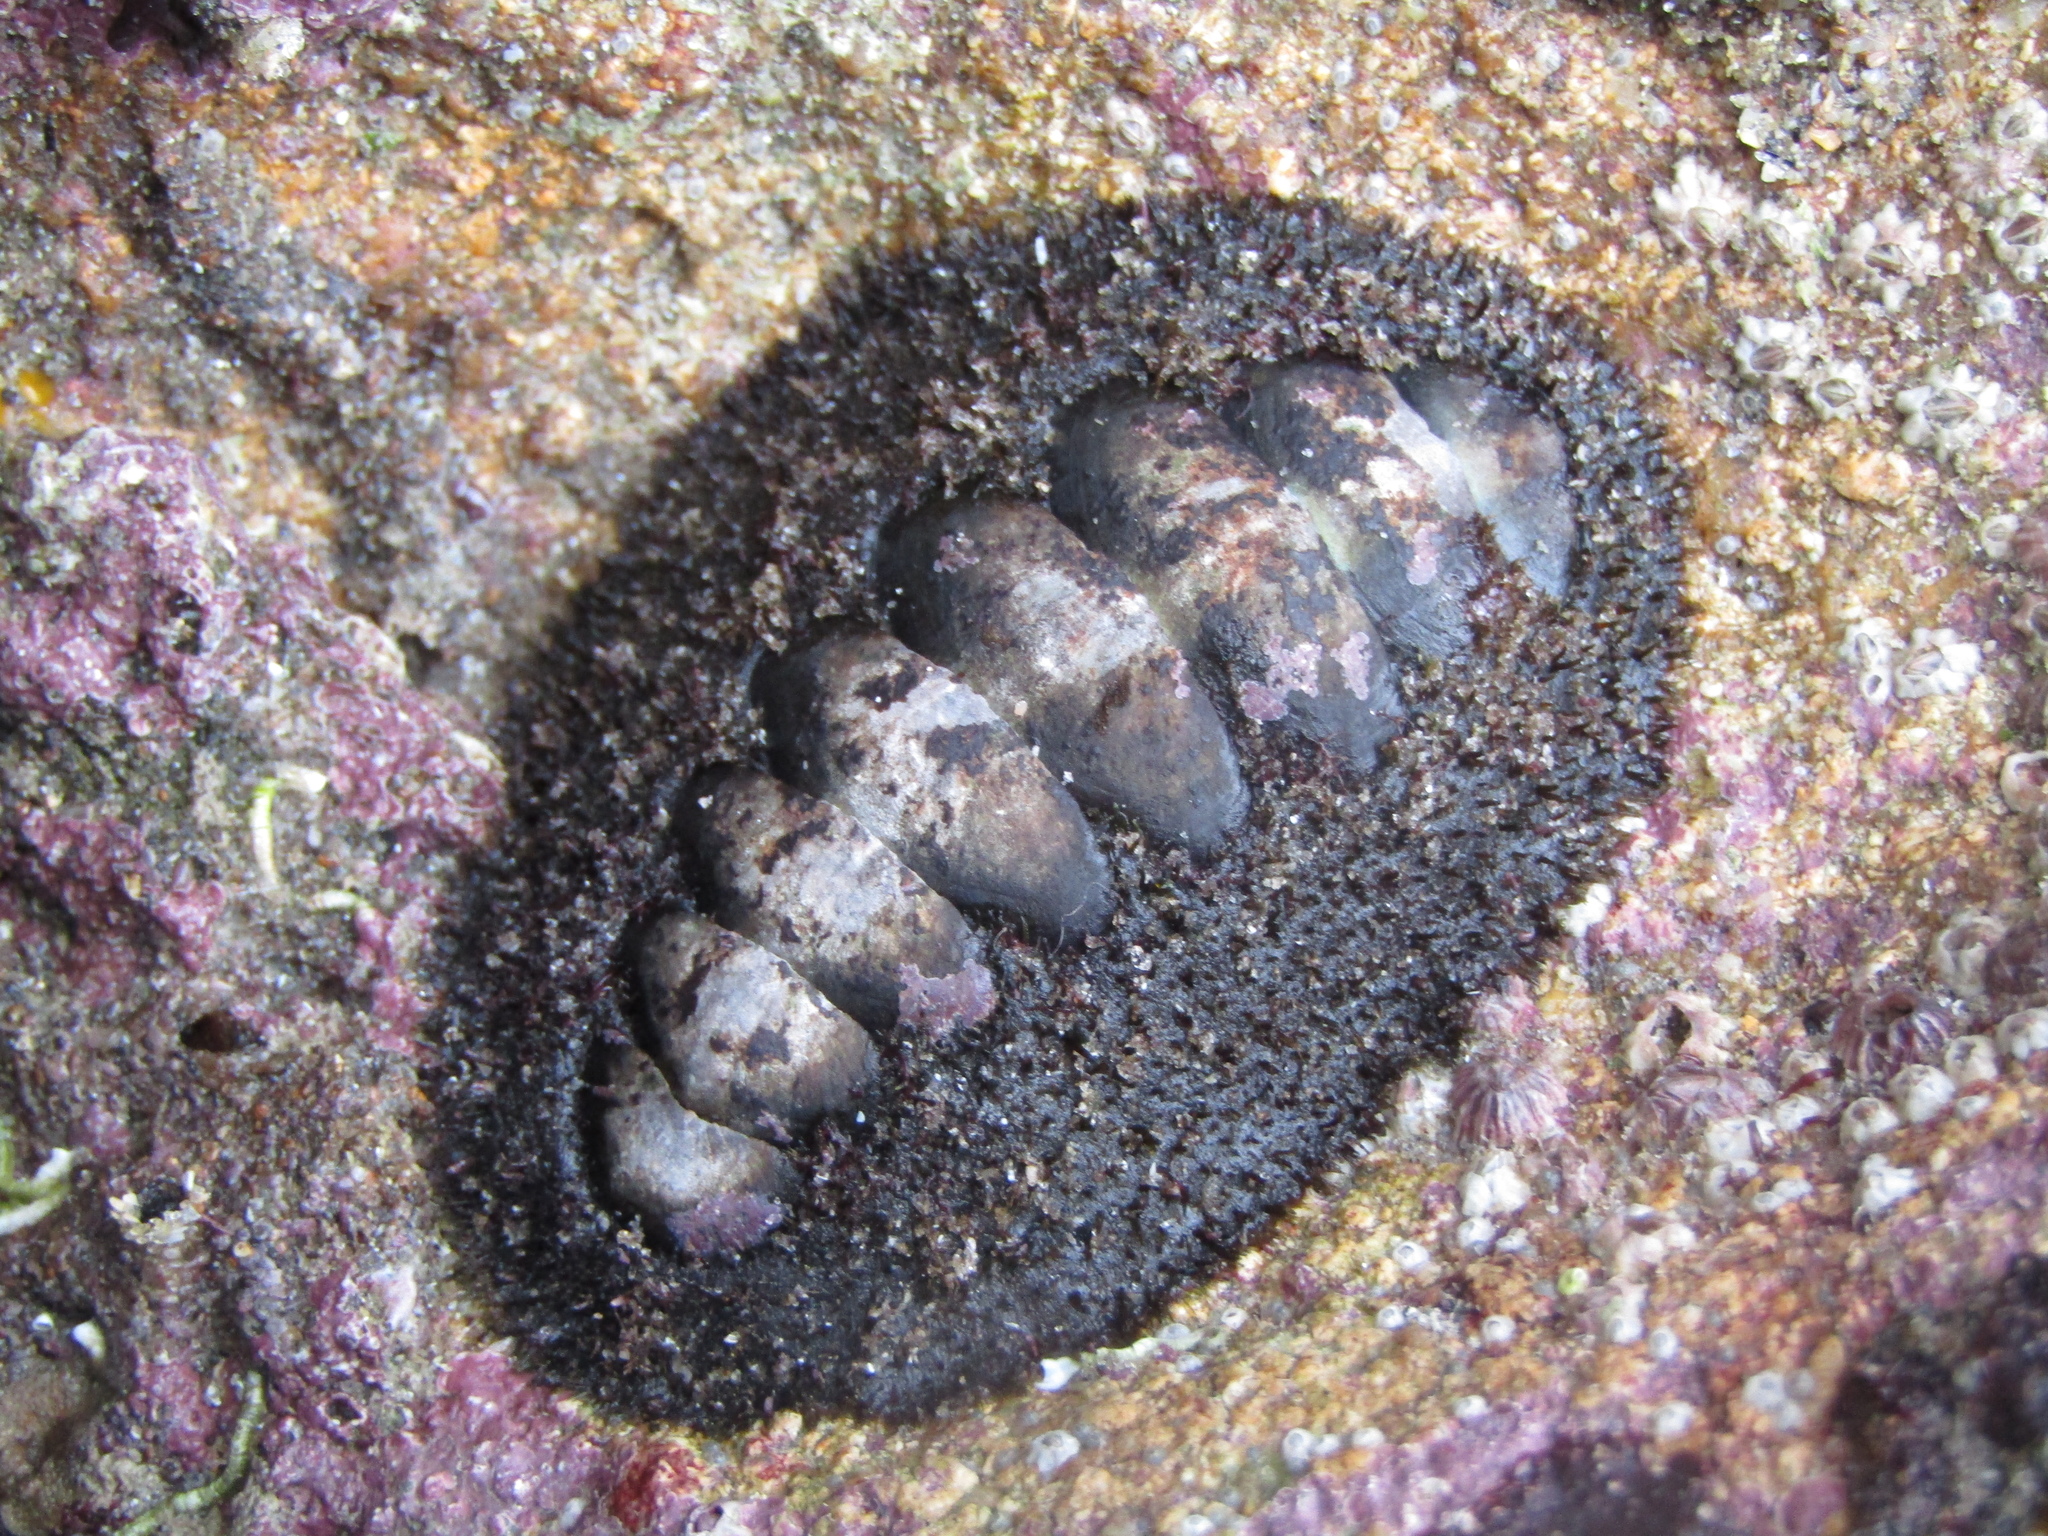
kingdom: Animalia
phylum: Mollusca
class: Polyplacophora
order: Chitonida
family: Mopaliidae
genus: Plaxiphora
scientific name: Plaxiphora obtecta
